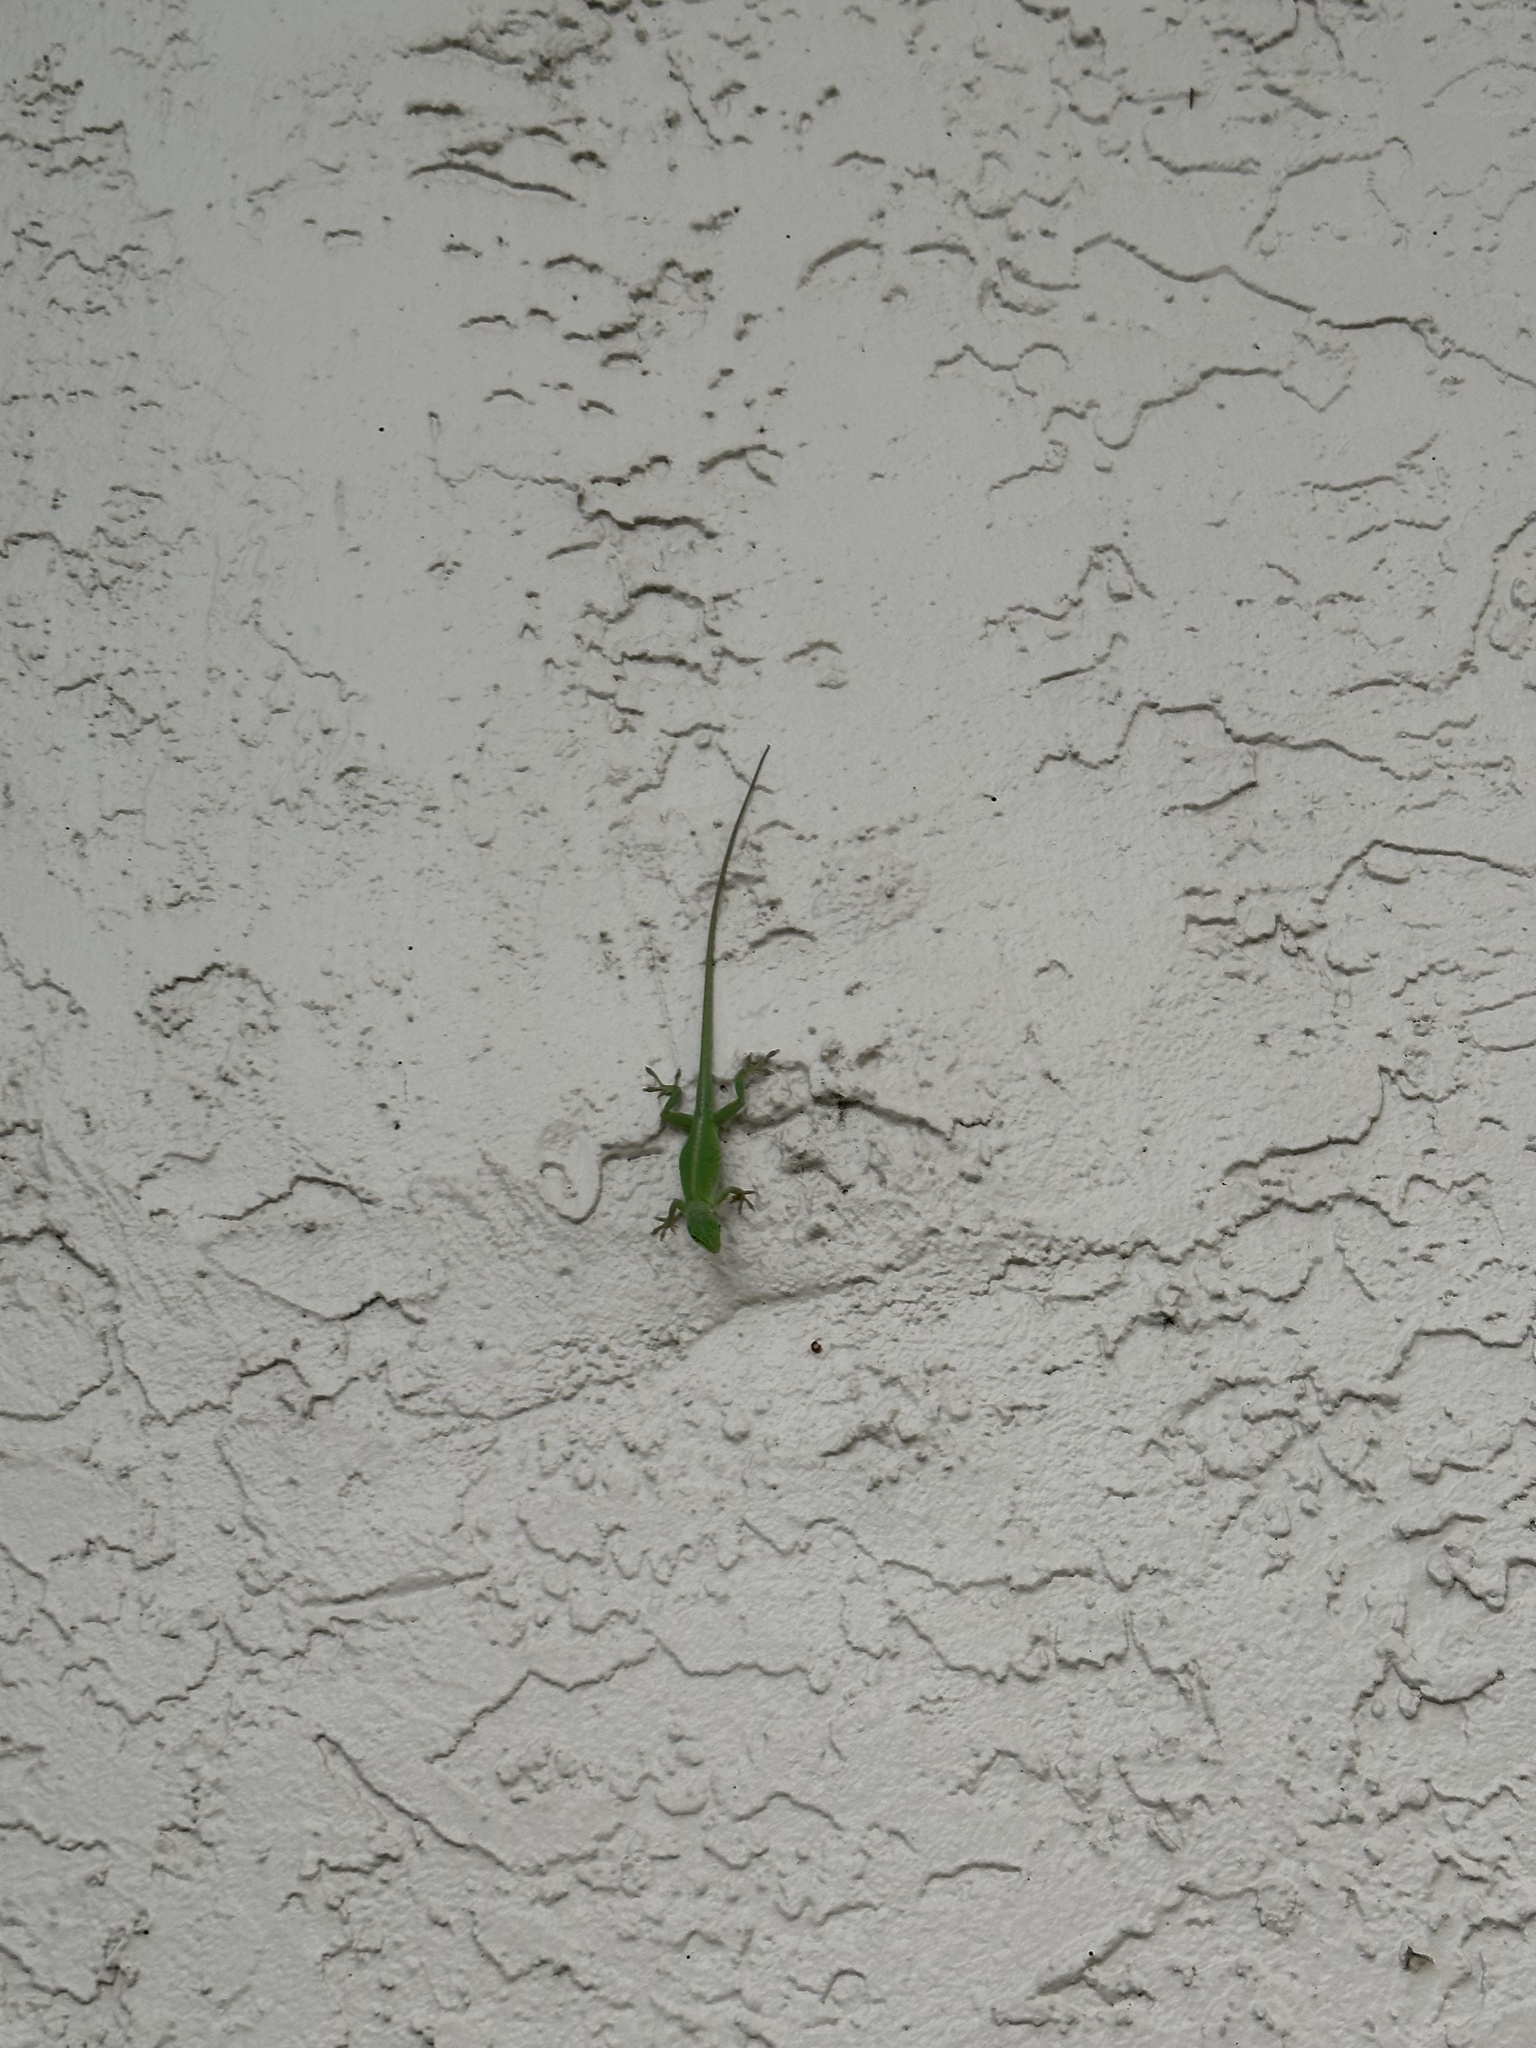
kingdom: Animalia
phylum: Chordata
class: Squamata
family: Dactyloidae
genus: Anolis
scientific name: Anolis carolinensis
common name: Green anole
